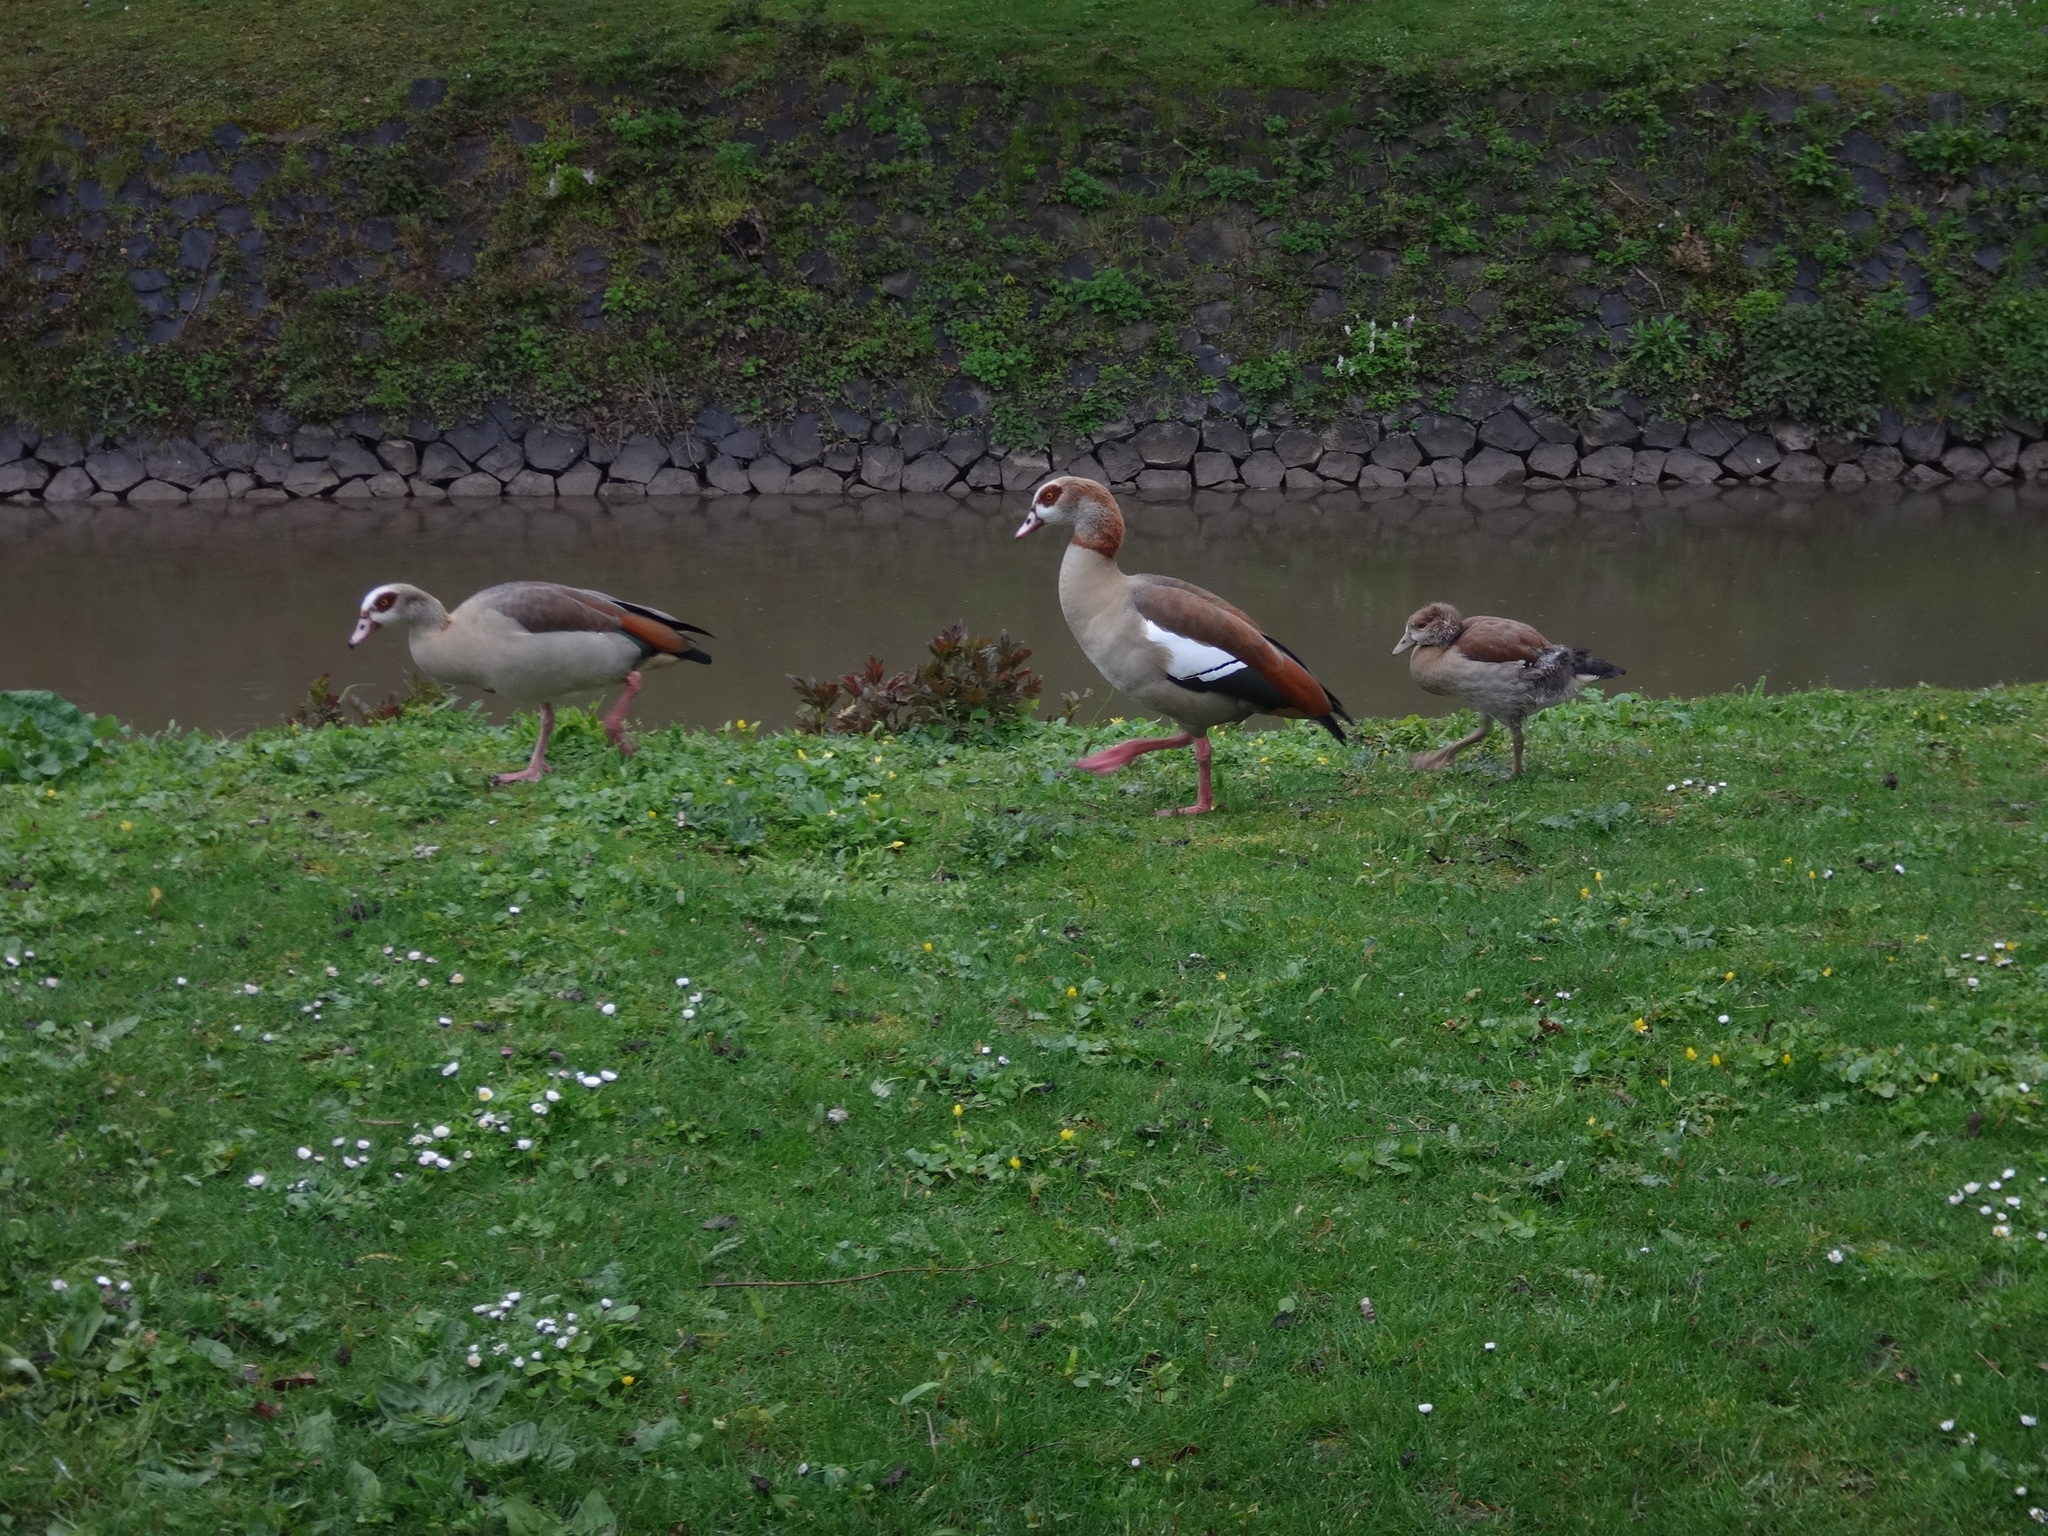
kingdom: Animalia
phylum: Chordata
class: Aves
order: Anseriformes
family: Anatidae
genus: Alopochen
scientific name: Alopochen aegyptiaca
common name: Egyptian goose
